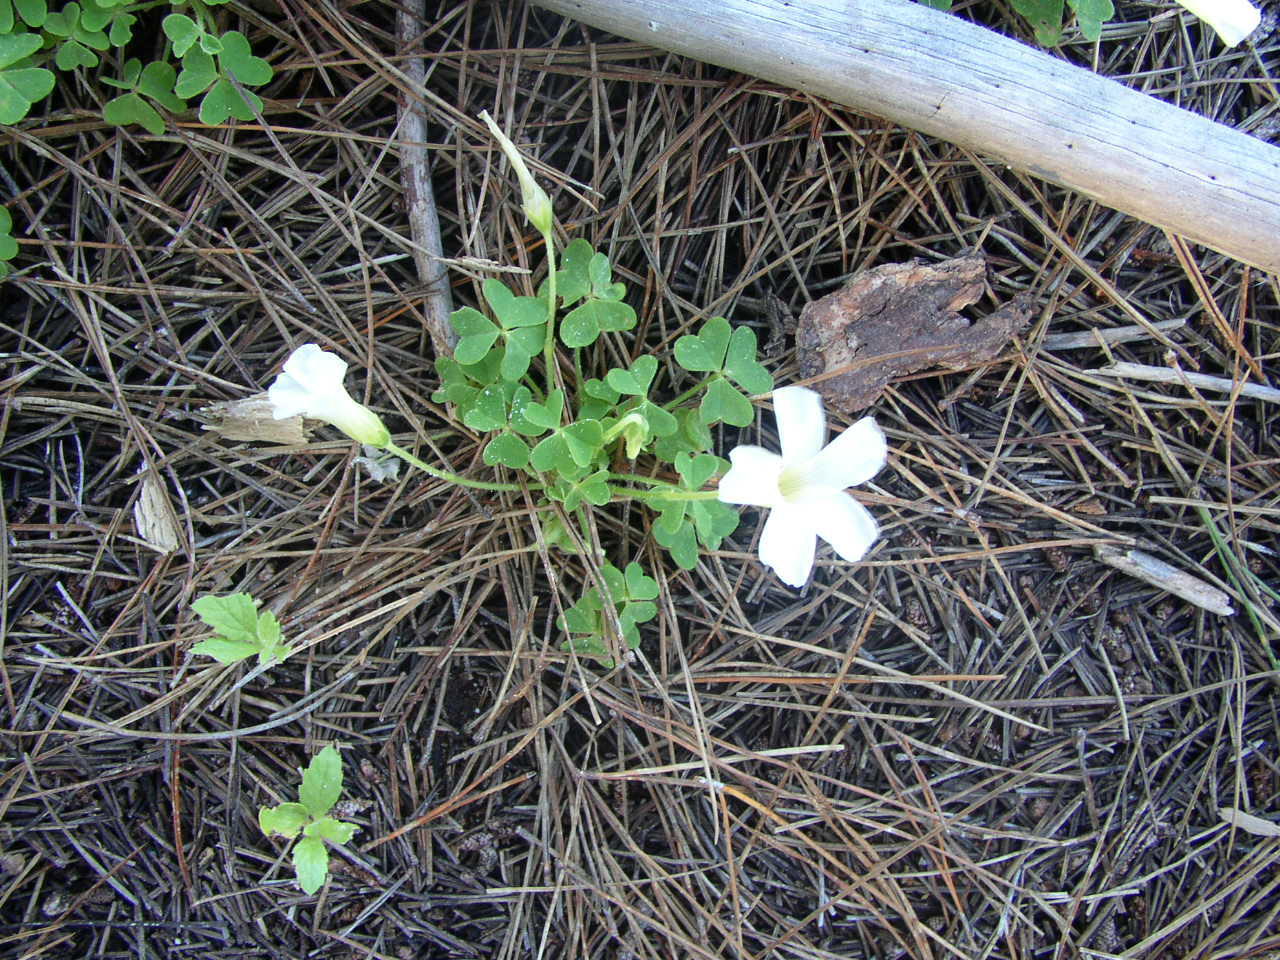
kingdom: Plantae
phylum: Tracheophyta
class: Magnoliopsida
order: Oxalidales
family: Oxalidaceae
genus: Oxalis
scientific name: Oxalis lanata
